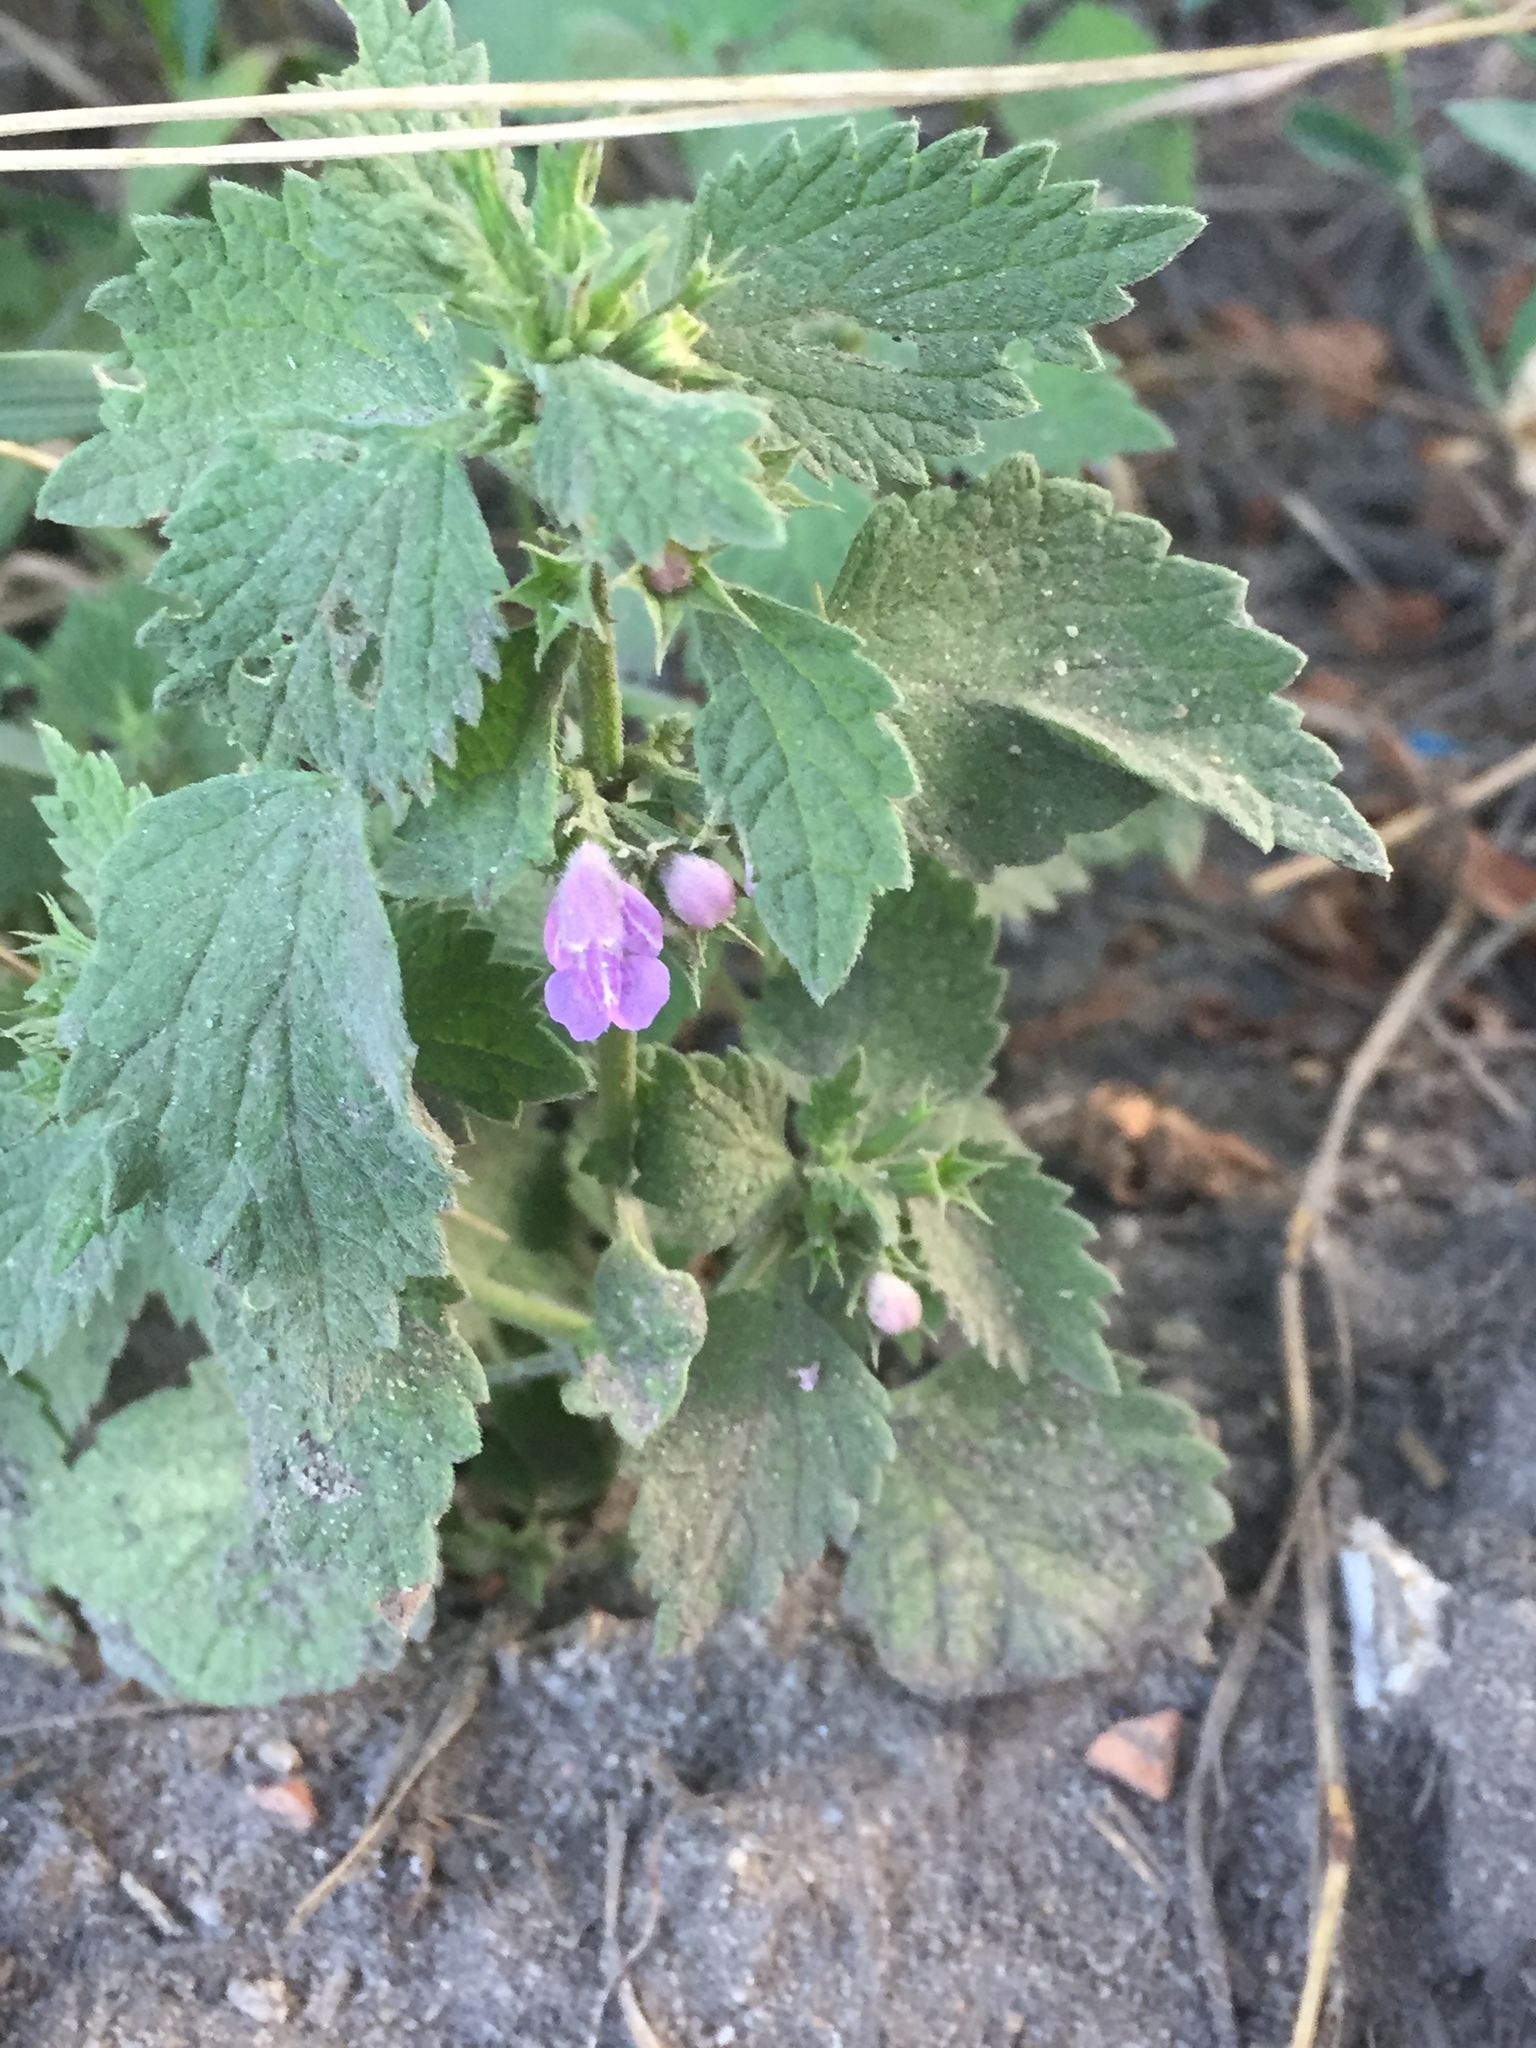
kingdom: Plantae
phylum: Tracheophyta
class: Magnoliopsida
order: Lamiales
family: Lamiaceae
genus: Ballota
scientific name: Ballota nigra
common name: Black horehound
